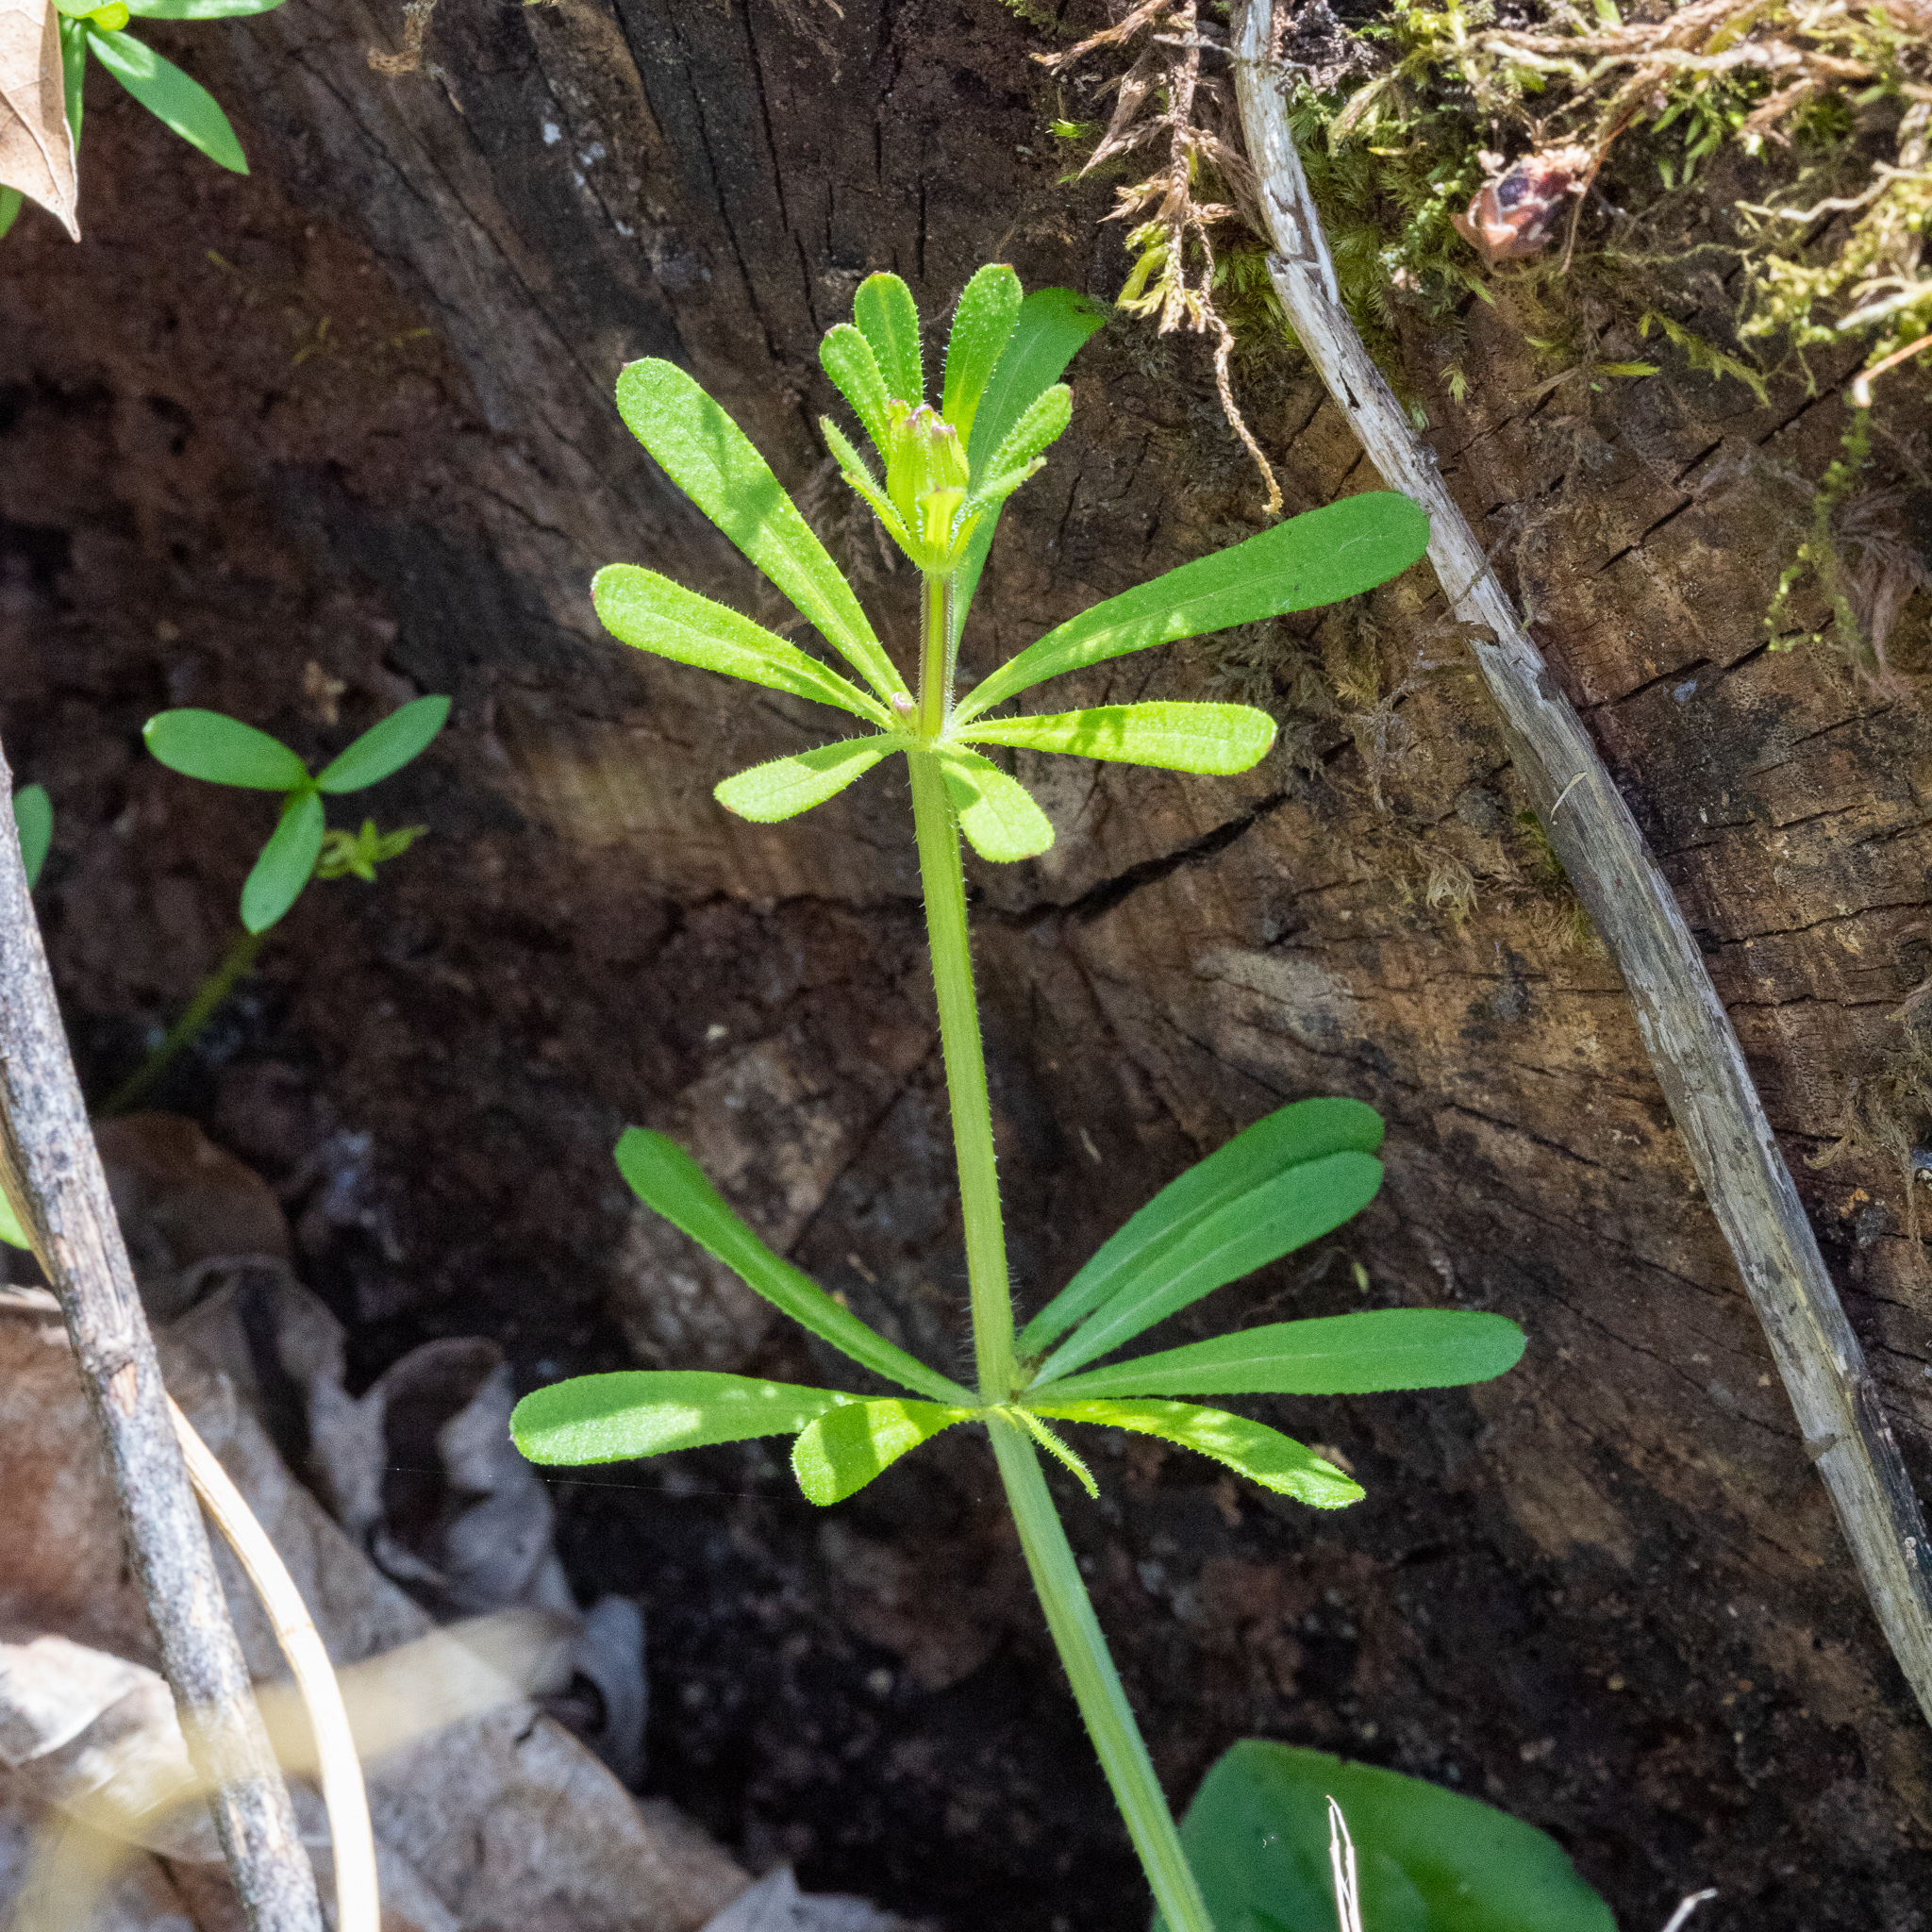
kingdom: Plantae
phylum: Tracheophyta
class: Magnoliopsida
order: Gentianales
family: Rubiaceae
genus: Galium
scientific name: Galium aparine
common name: Cleavers
